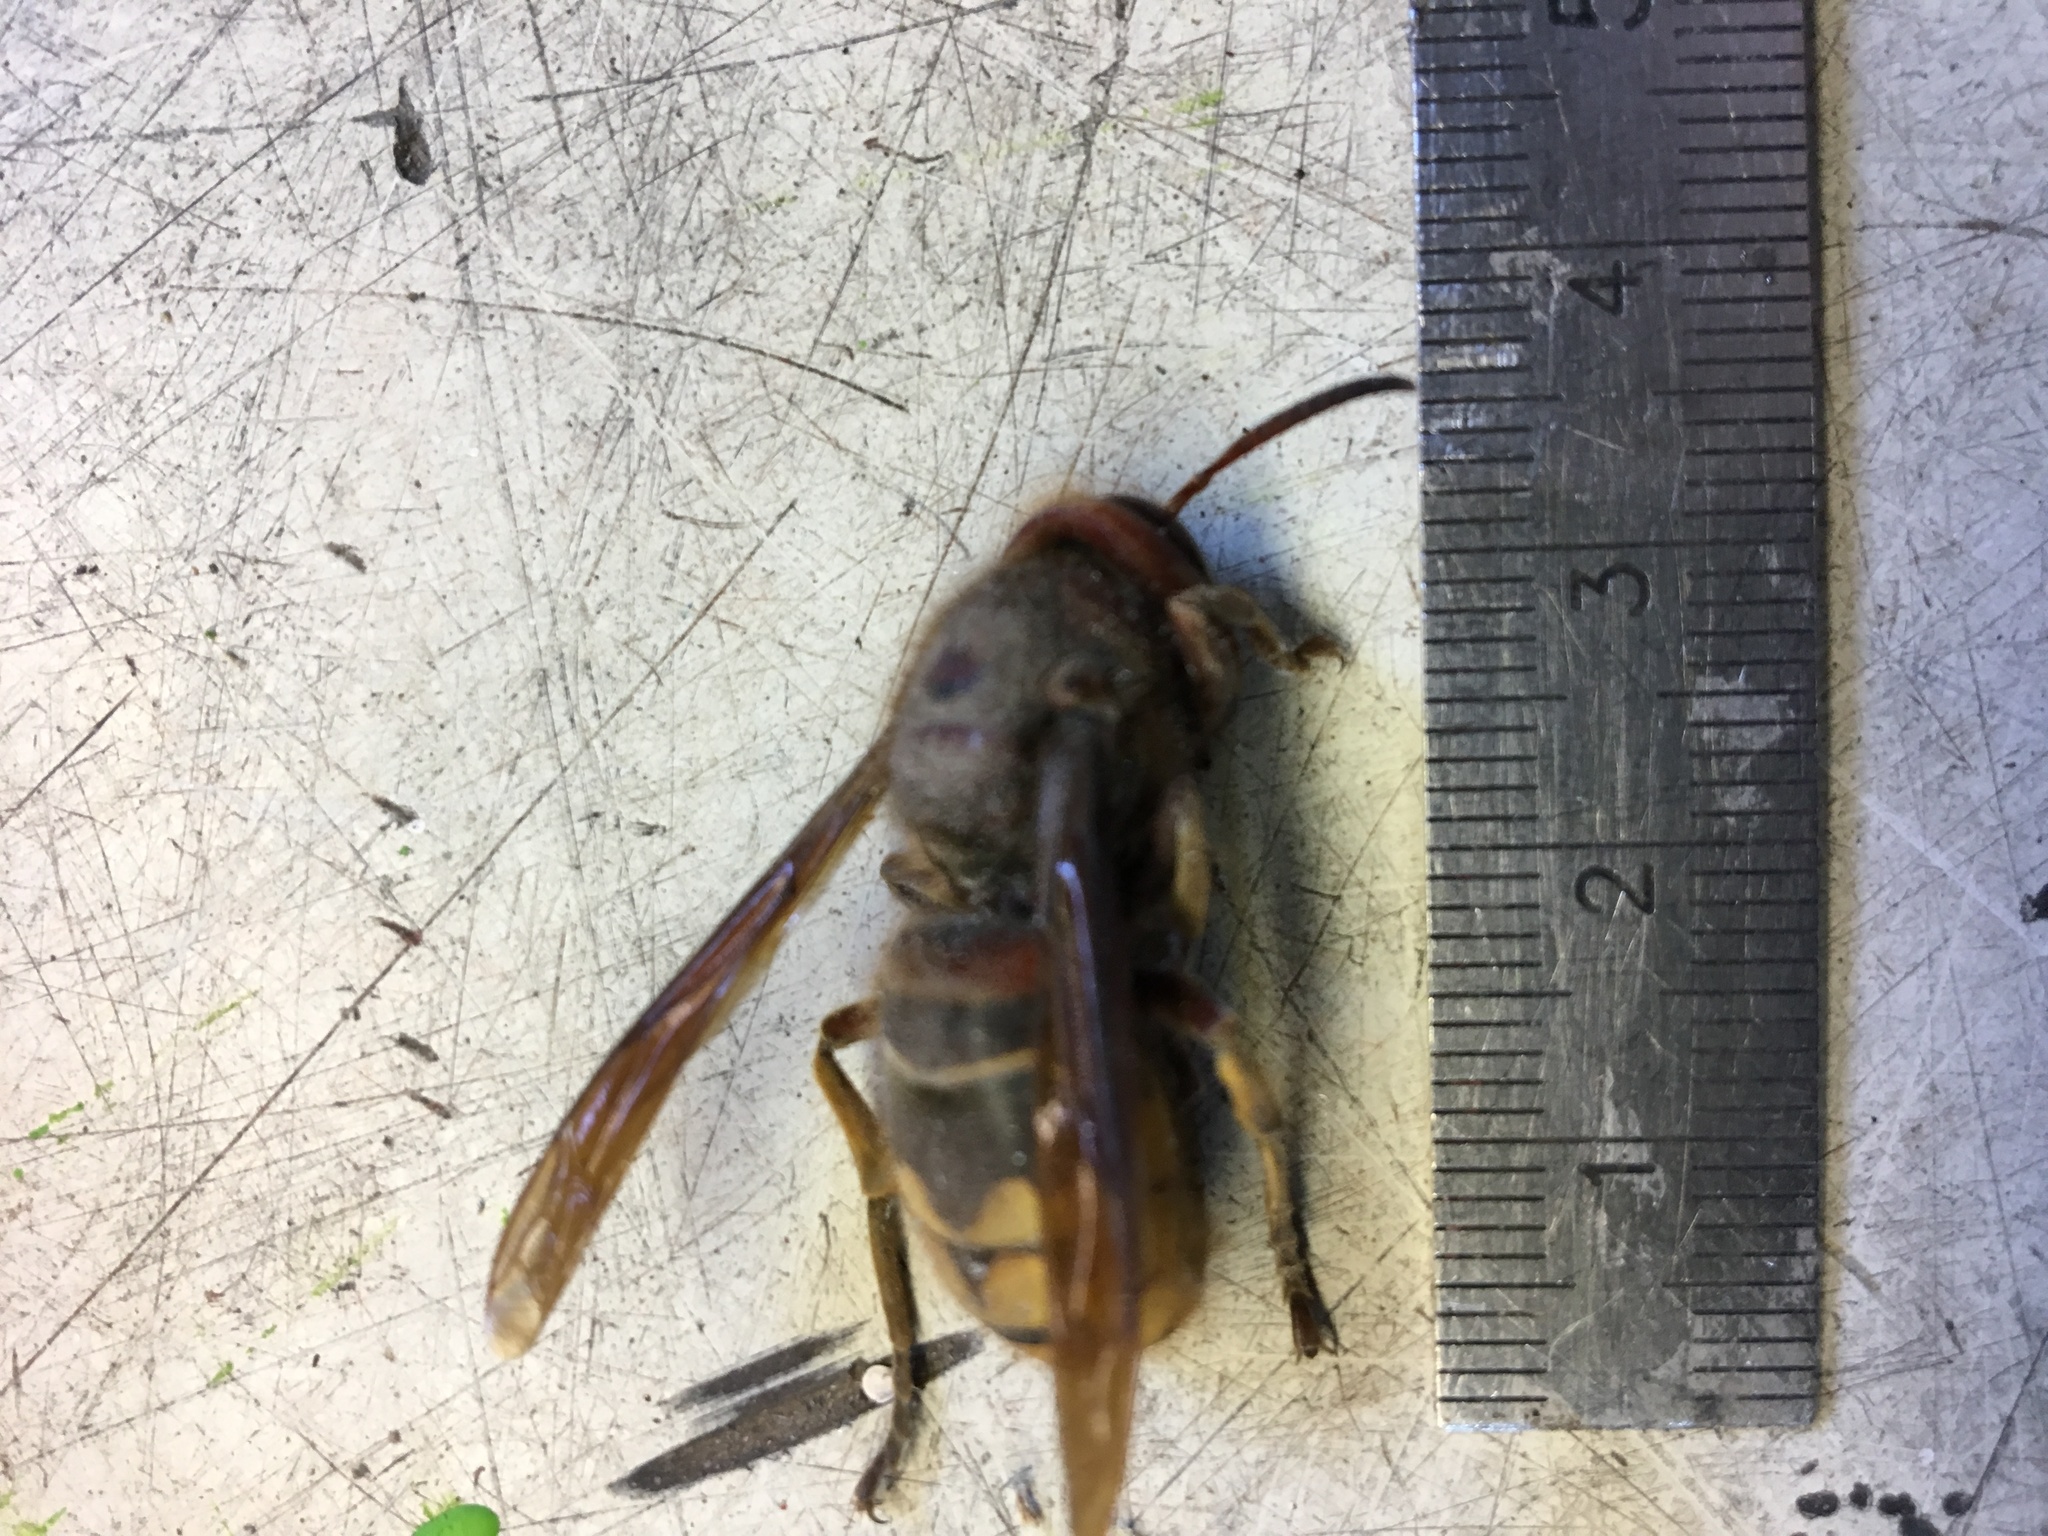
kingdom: Animalia
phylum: Arthropoda
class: Insecta
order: Hymenoptera
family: Vespidae
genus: Vespa
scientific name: Vespa crabro
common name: Hornet
